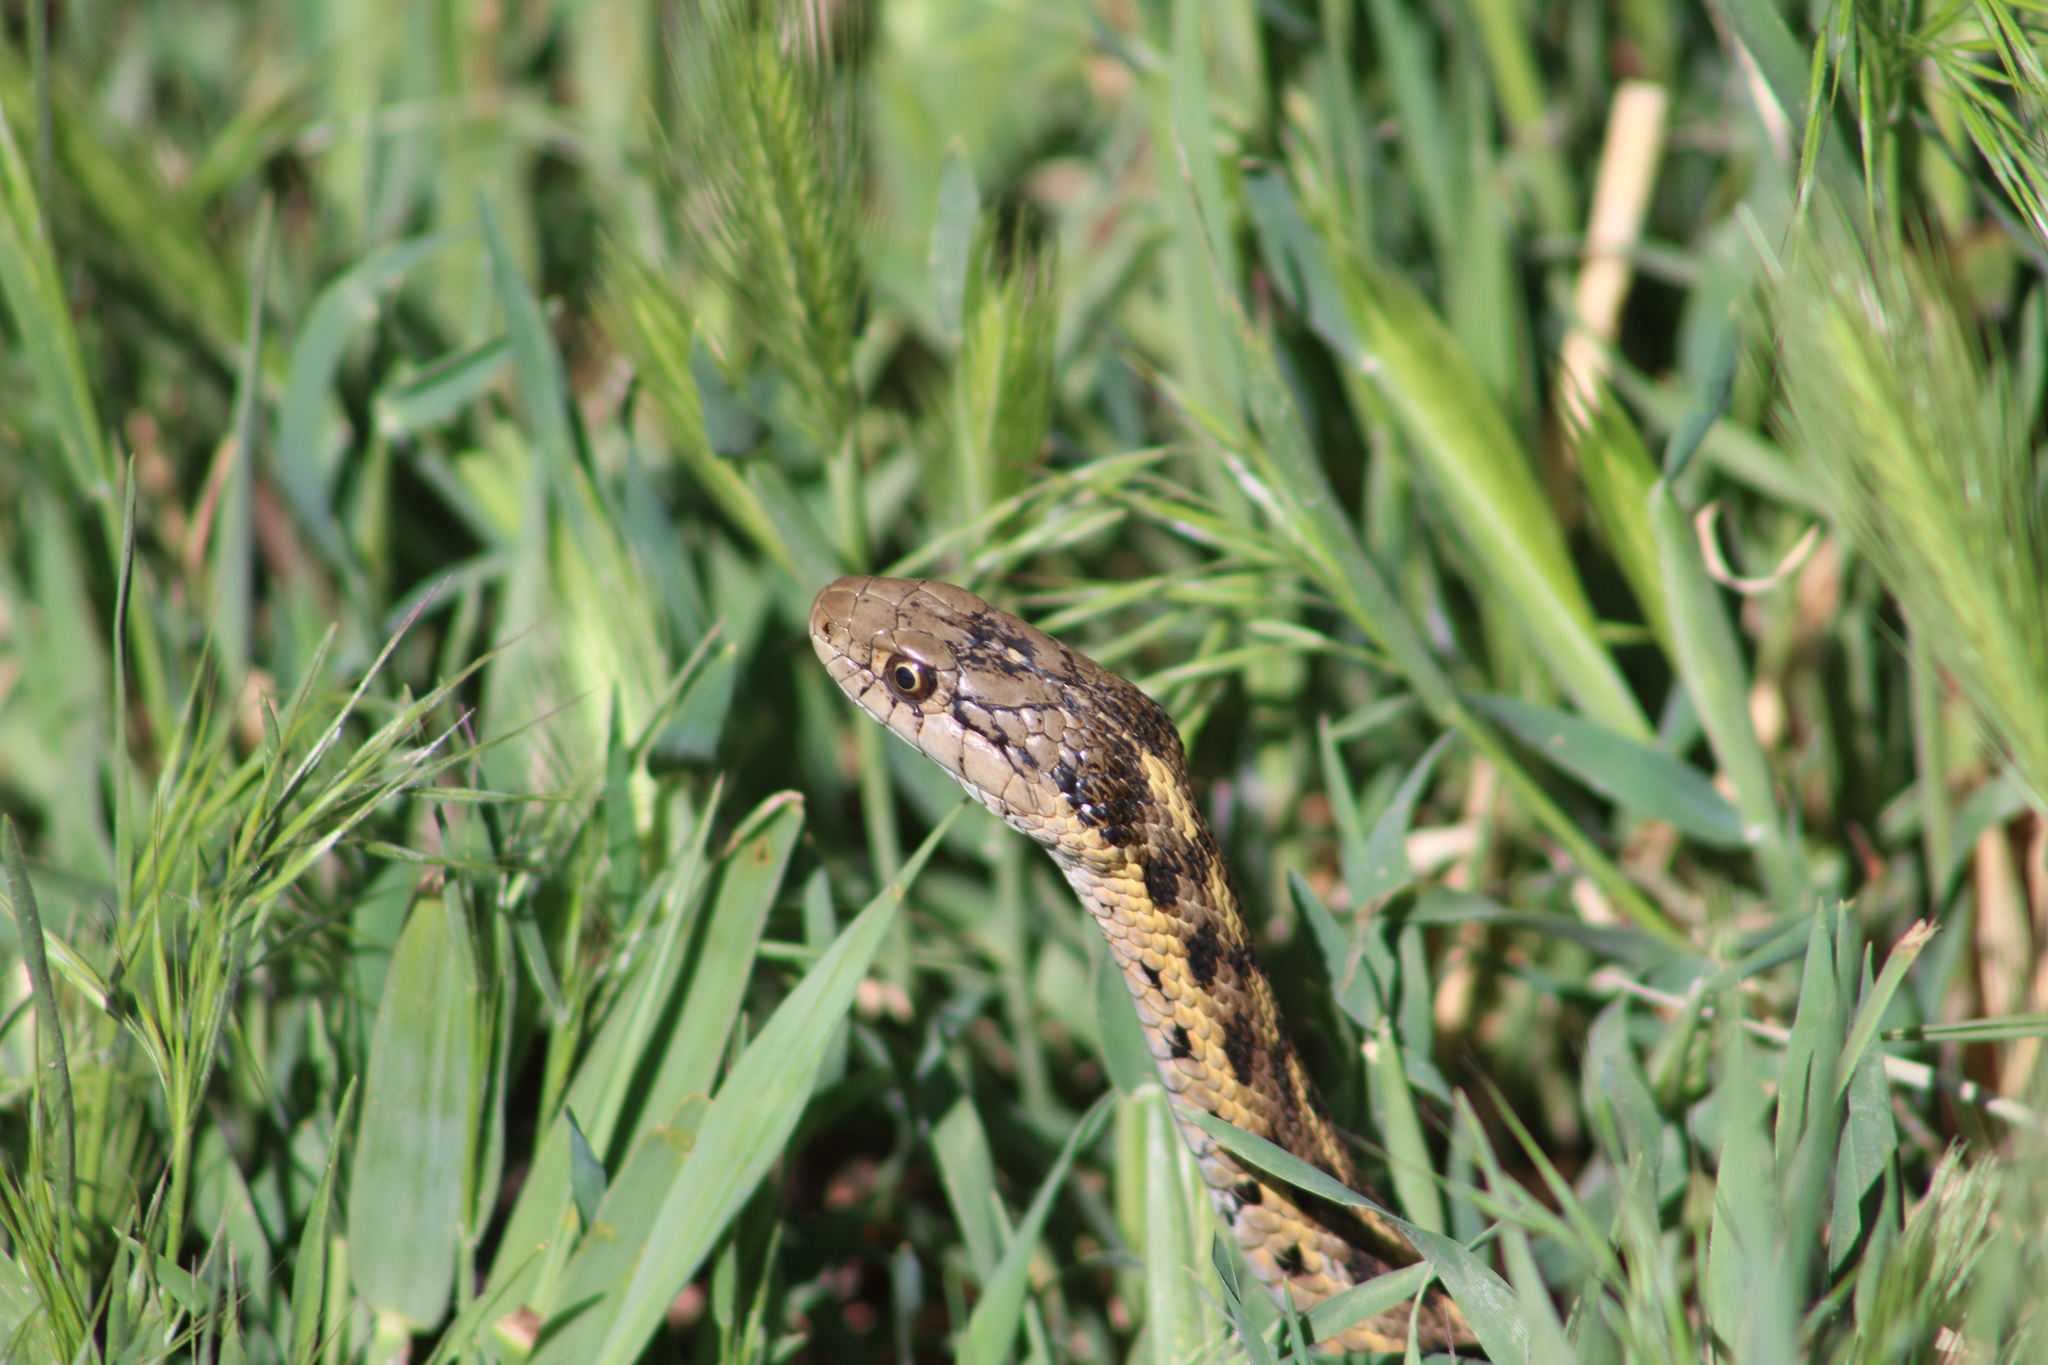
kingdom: Animalia
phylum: Chordata
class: Squamata
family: Colubridae
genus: Thamnophis
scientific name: Thamnophis elegans
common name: Western terrestrial garter snake
